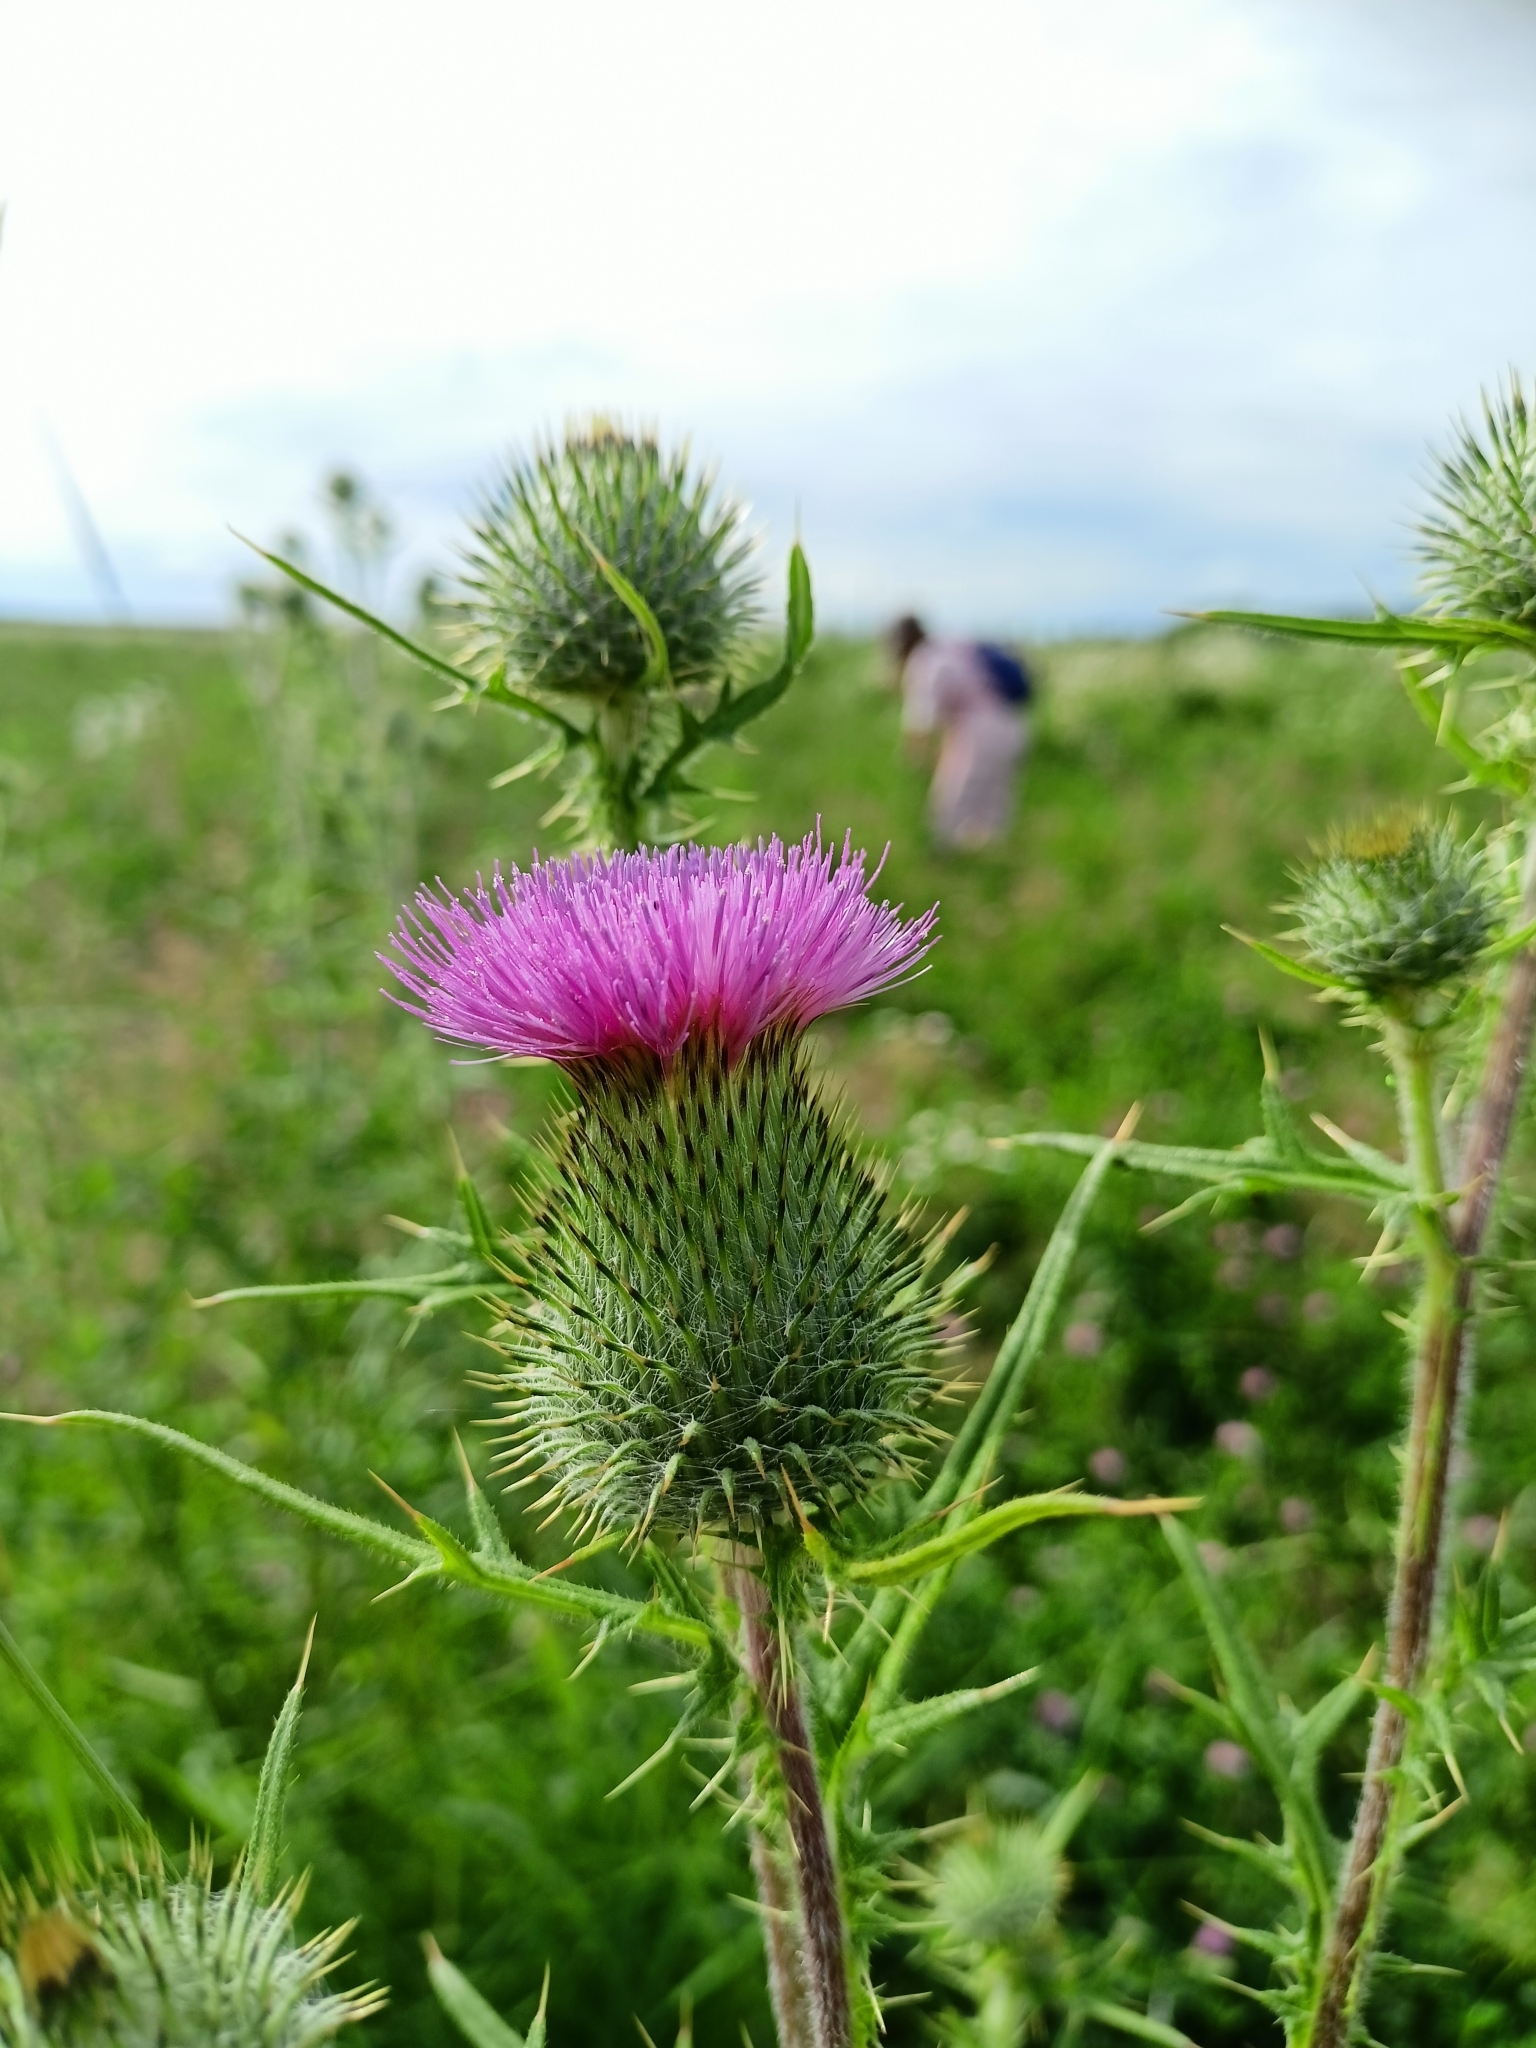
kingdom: Plantae
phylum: Tracheophyta
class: Magnoliopsida
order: Asterales
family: Asteraceae
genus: Cirsium
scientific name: Cirsium vulgare
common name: Bull thistle
